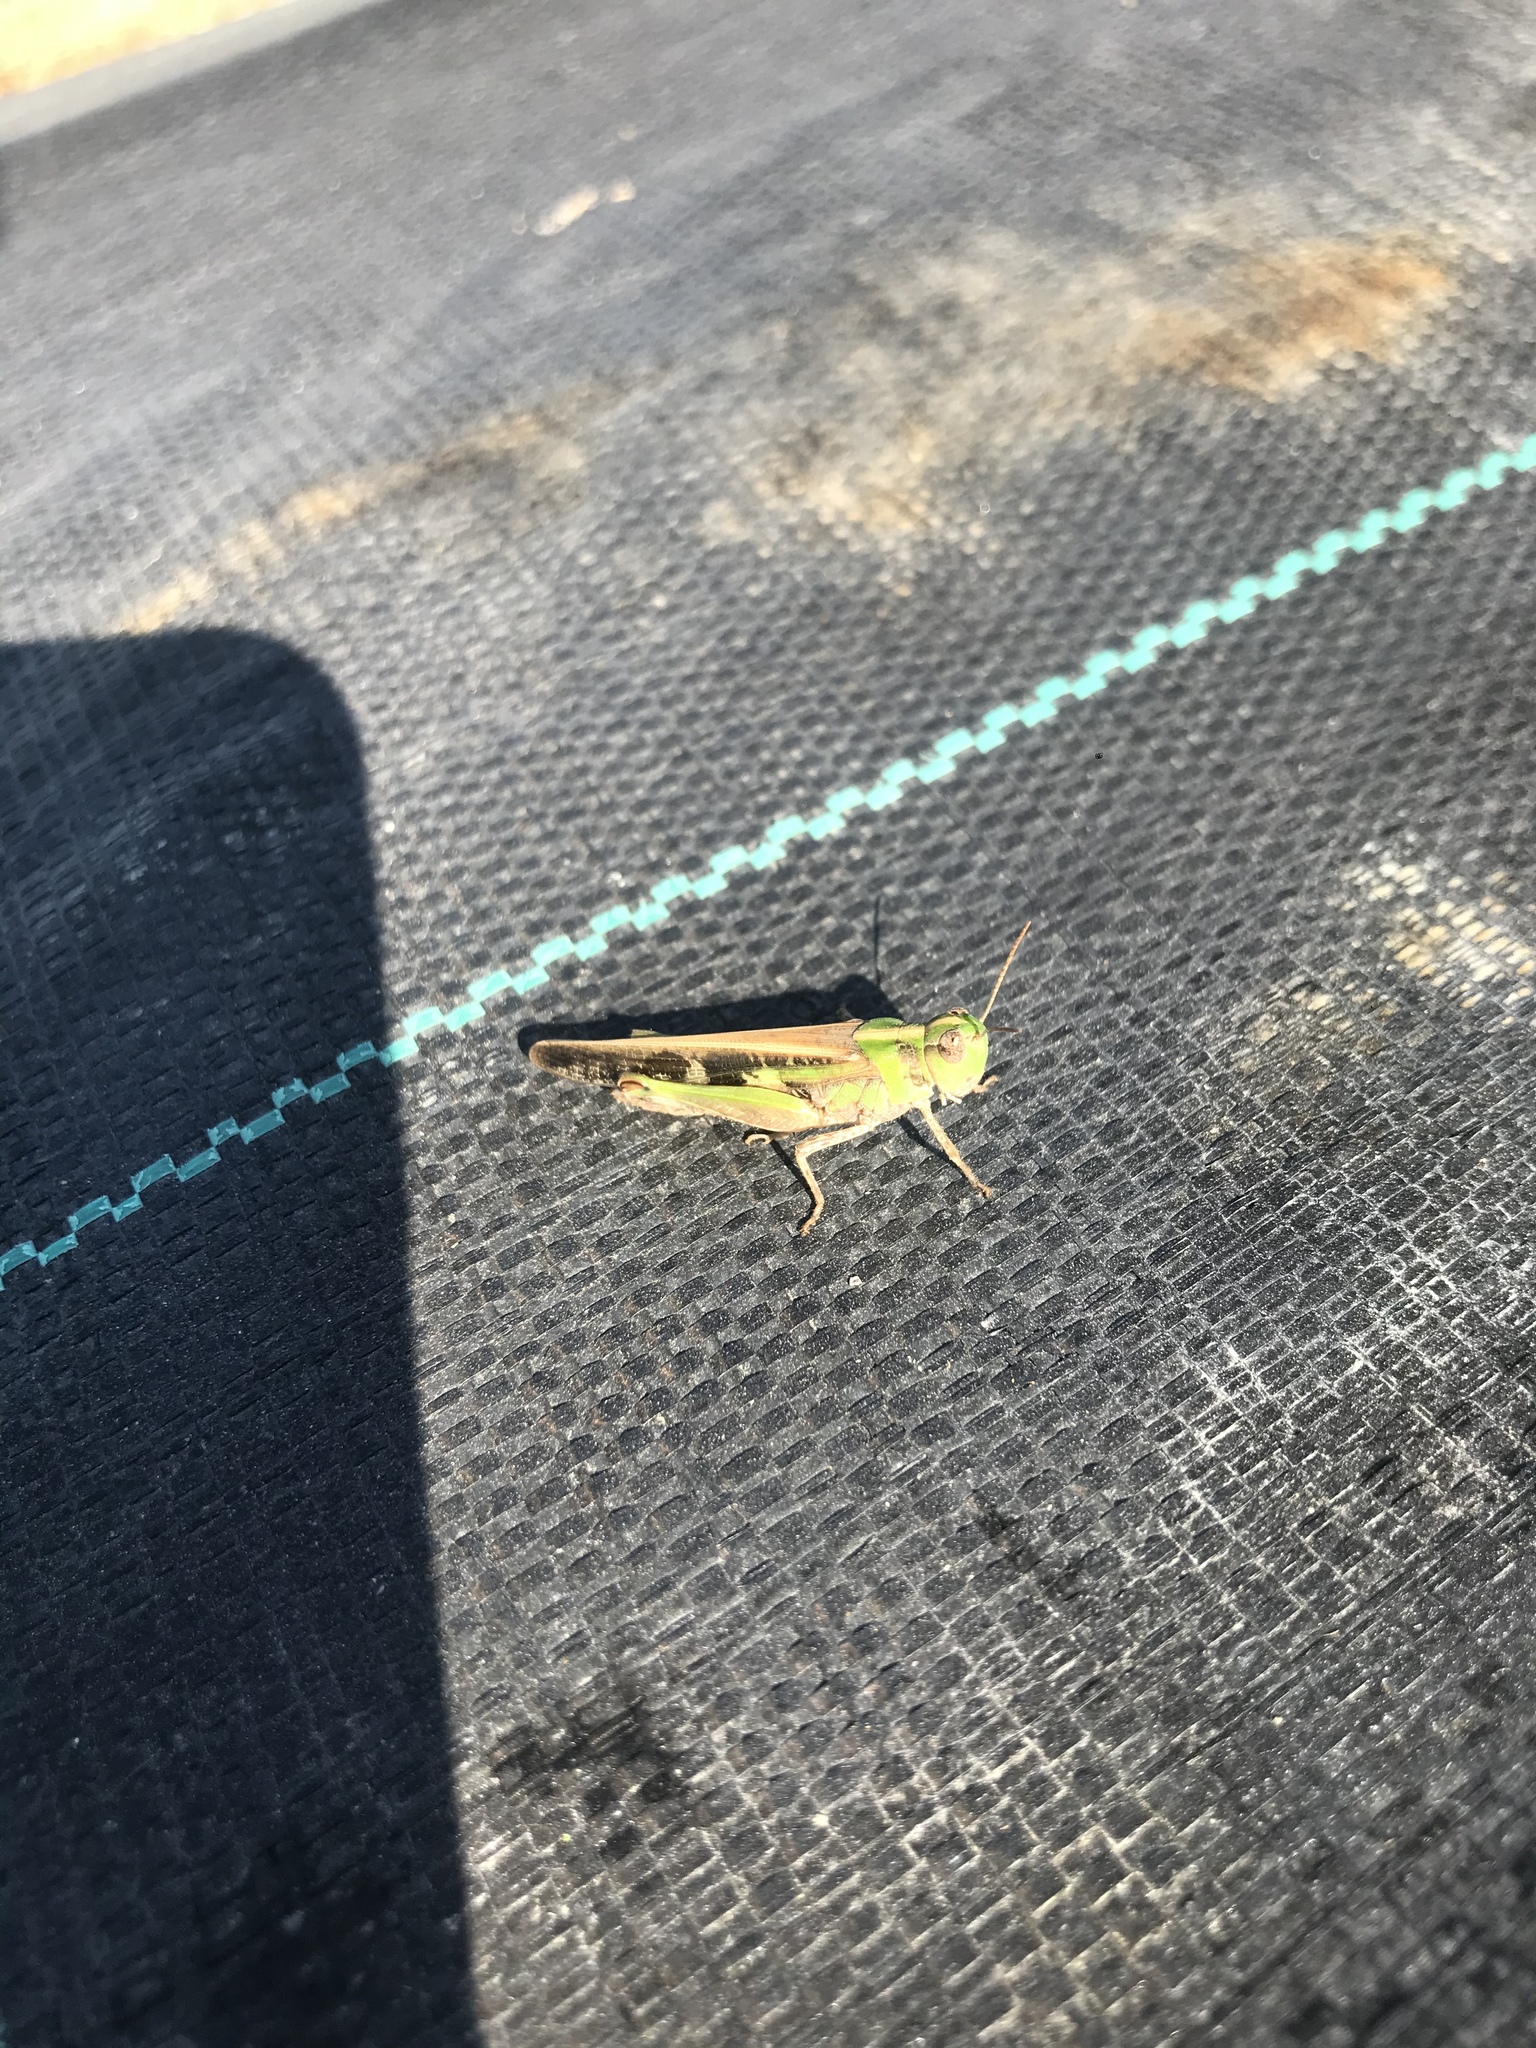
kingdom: Animalia
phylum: Arthropoda
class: Insecta
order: Orthoptera
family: Acrididae
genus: Aiolopus
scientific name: Aiolopus thalassinus
